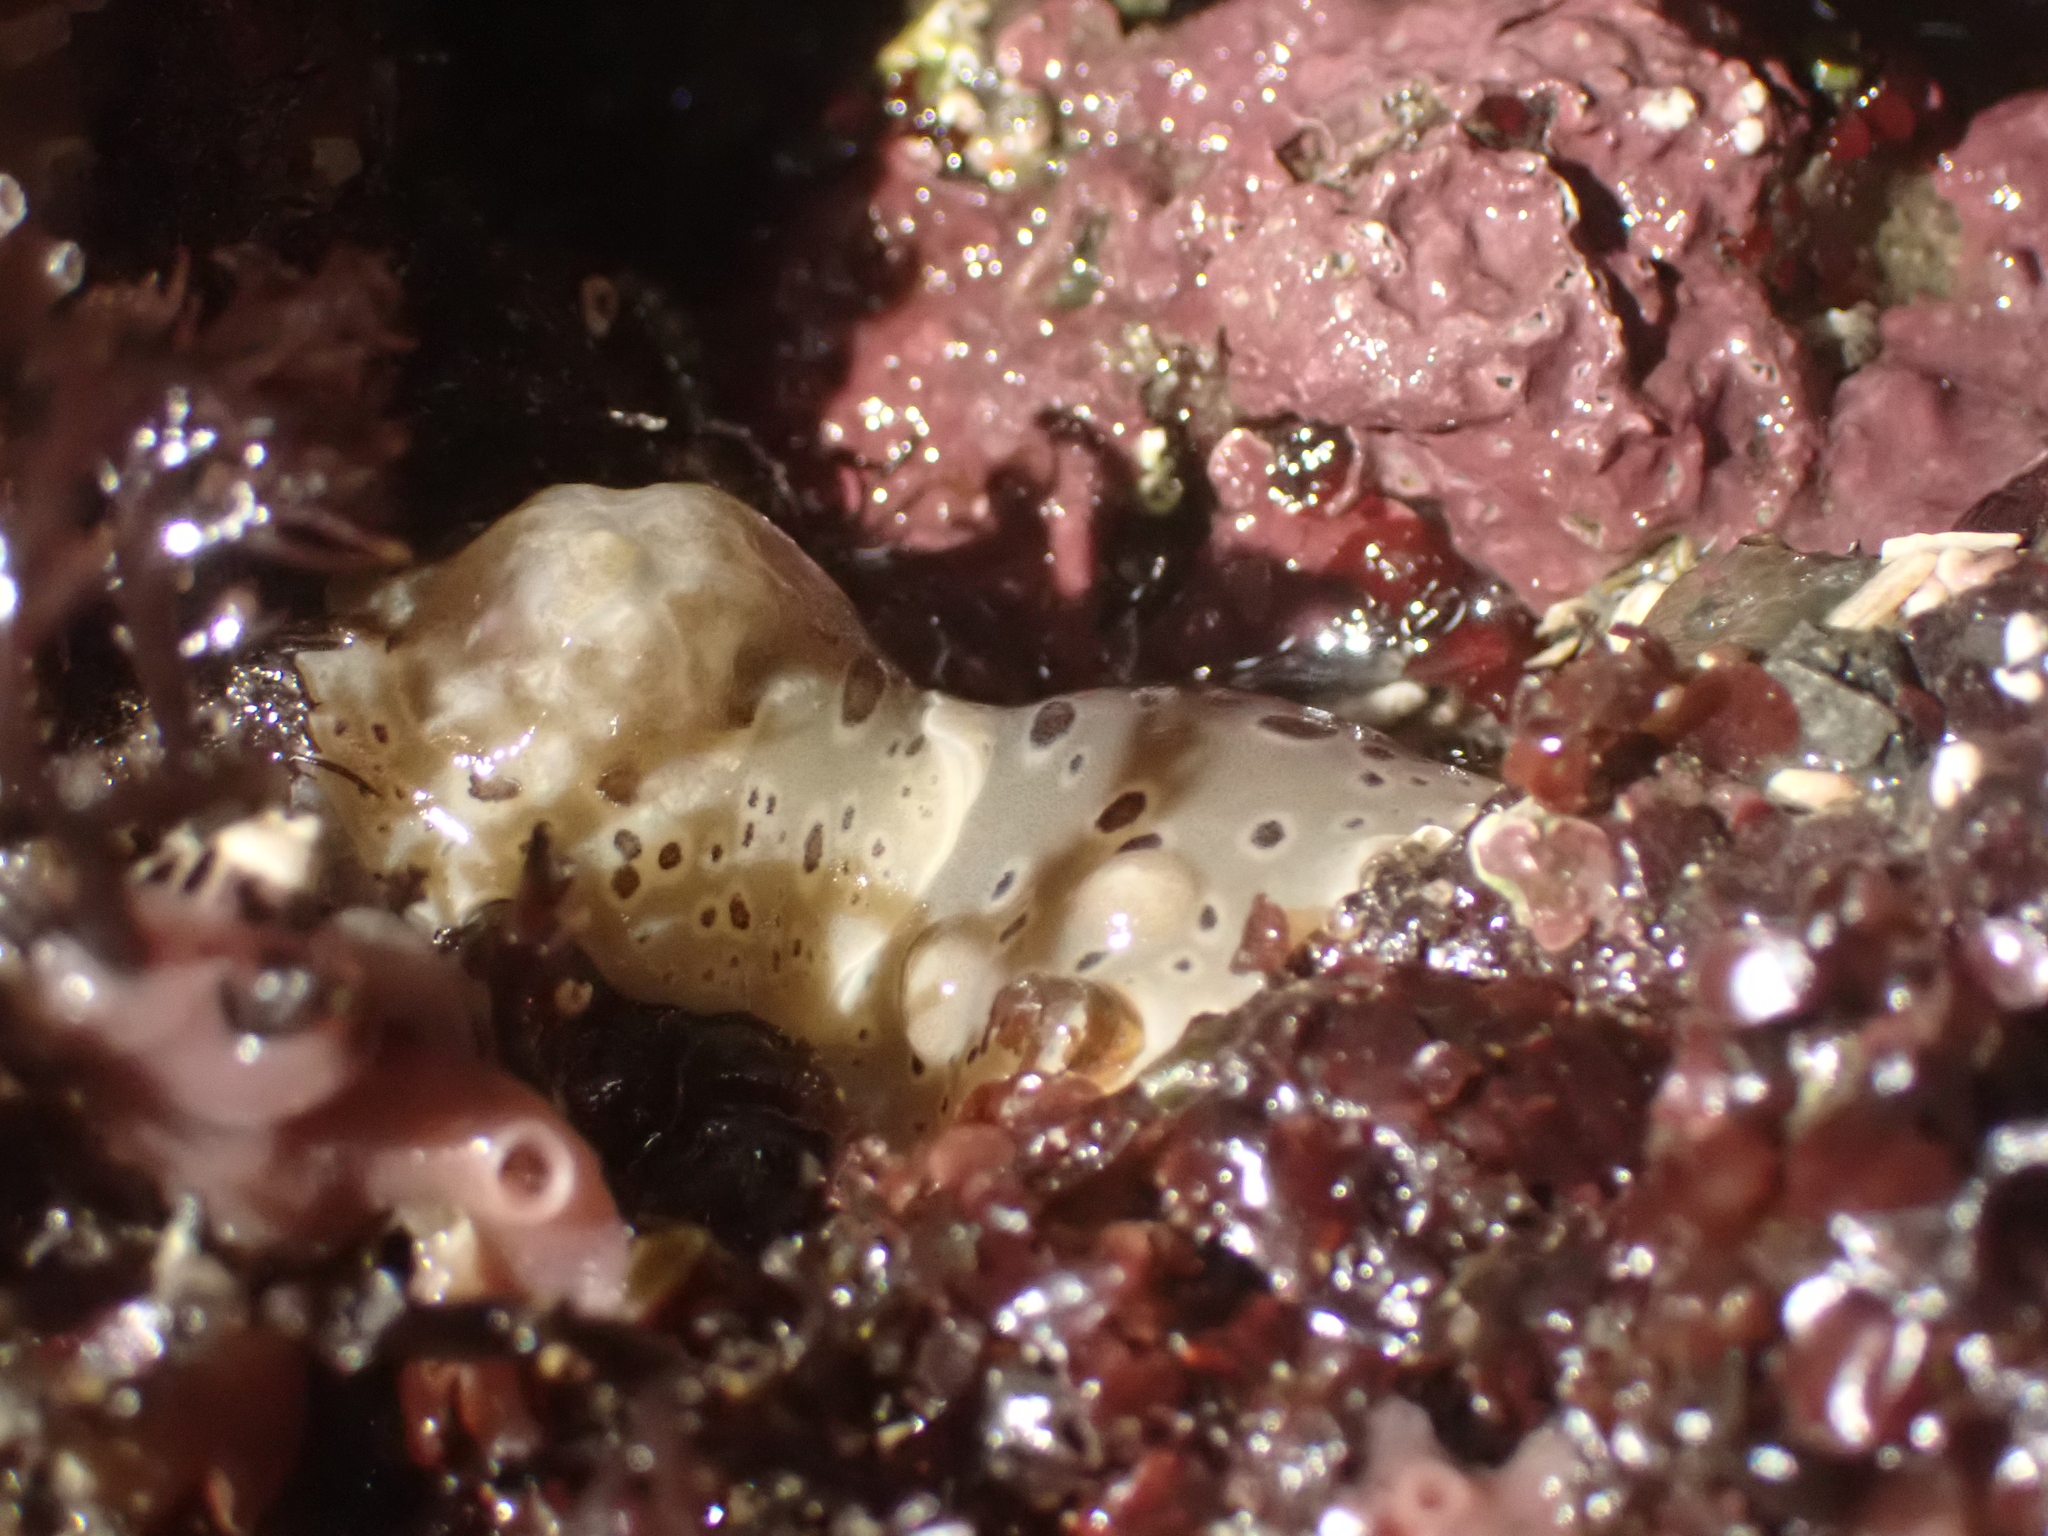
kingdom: Animalia
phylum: Mollusca
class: Gastropoda
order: Nudibranchia
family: Discodorididae
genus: Diaulula
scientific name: Diaulula odonoghuei
